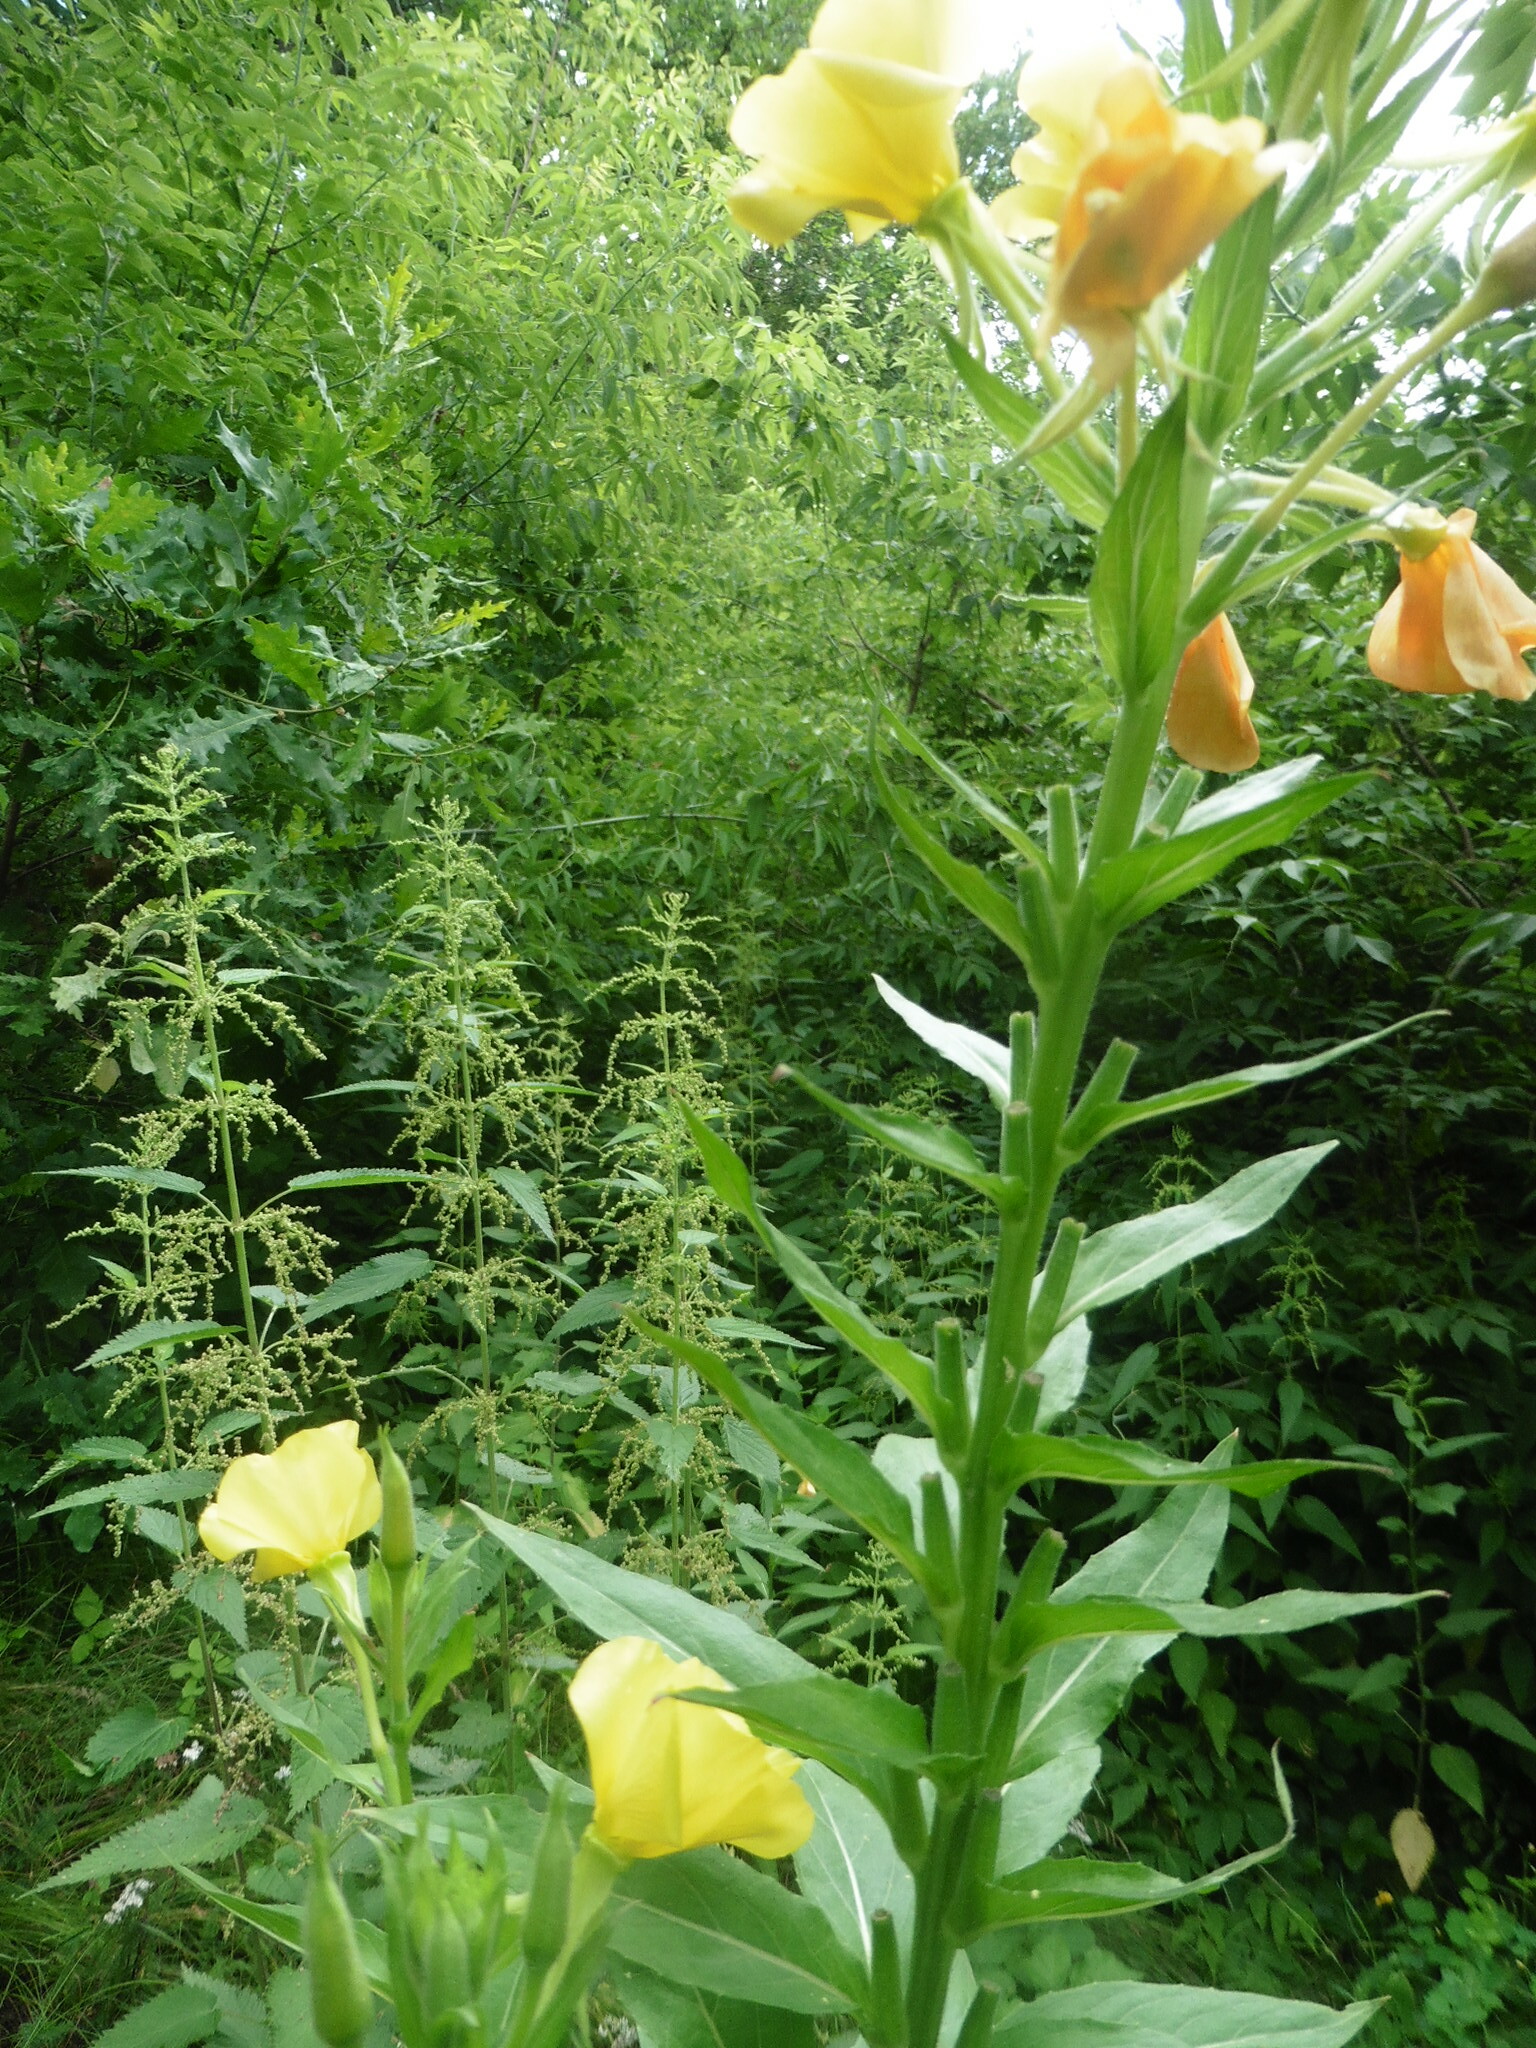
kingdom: Plantae
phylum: Tracheophyta
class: Magnoliopsida
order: Myrtales
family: Onagraceae
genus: Oenothera
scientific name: Oenothera biennis
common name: Common evening-primrose
